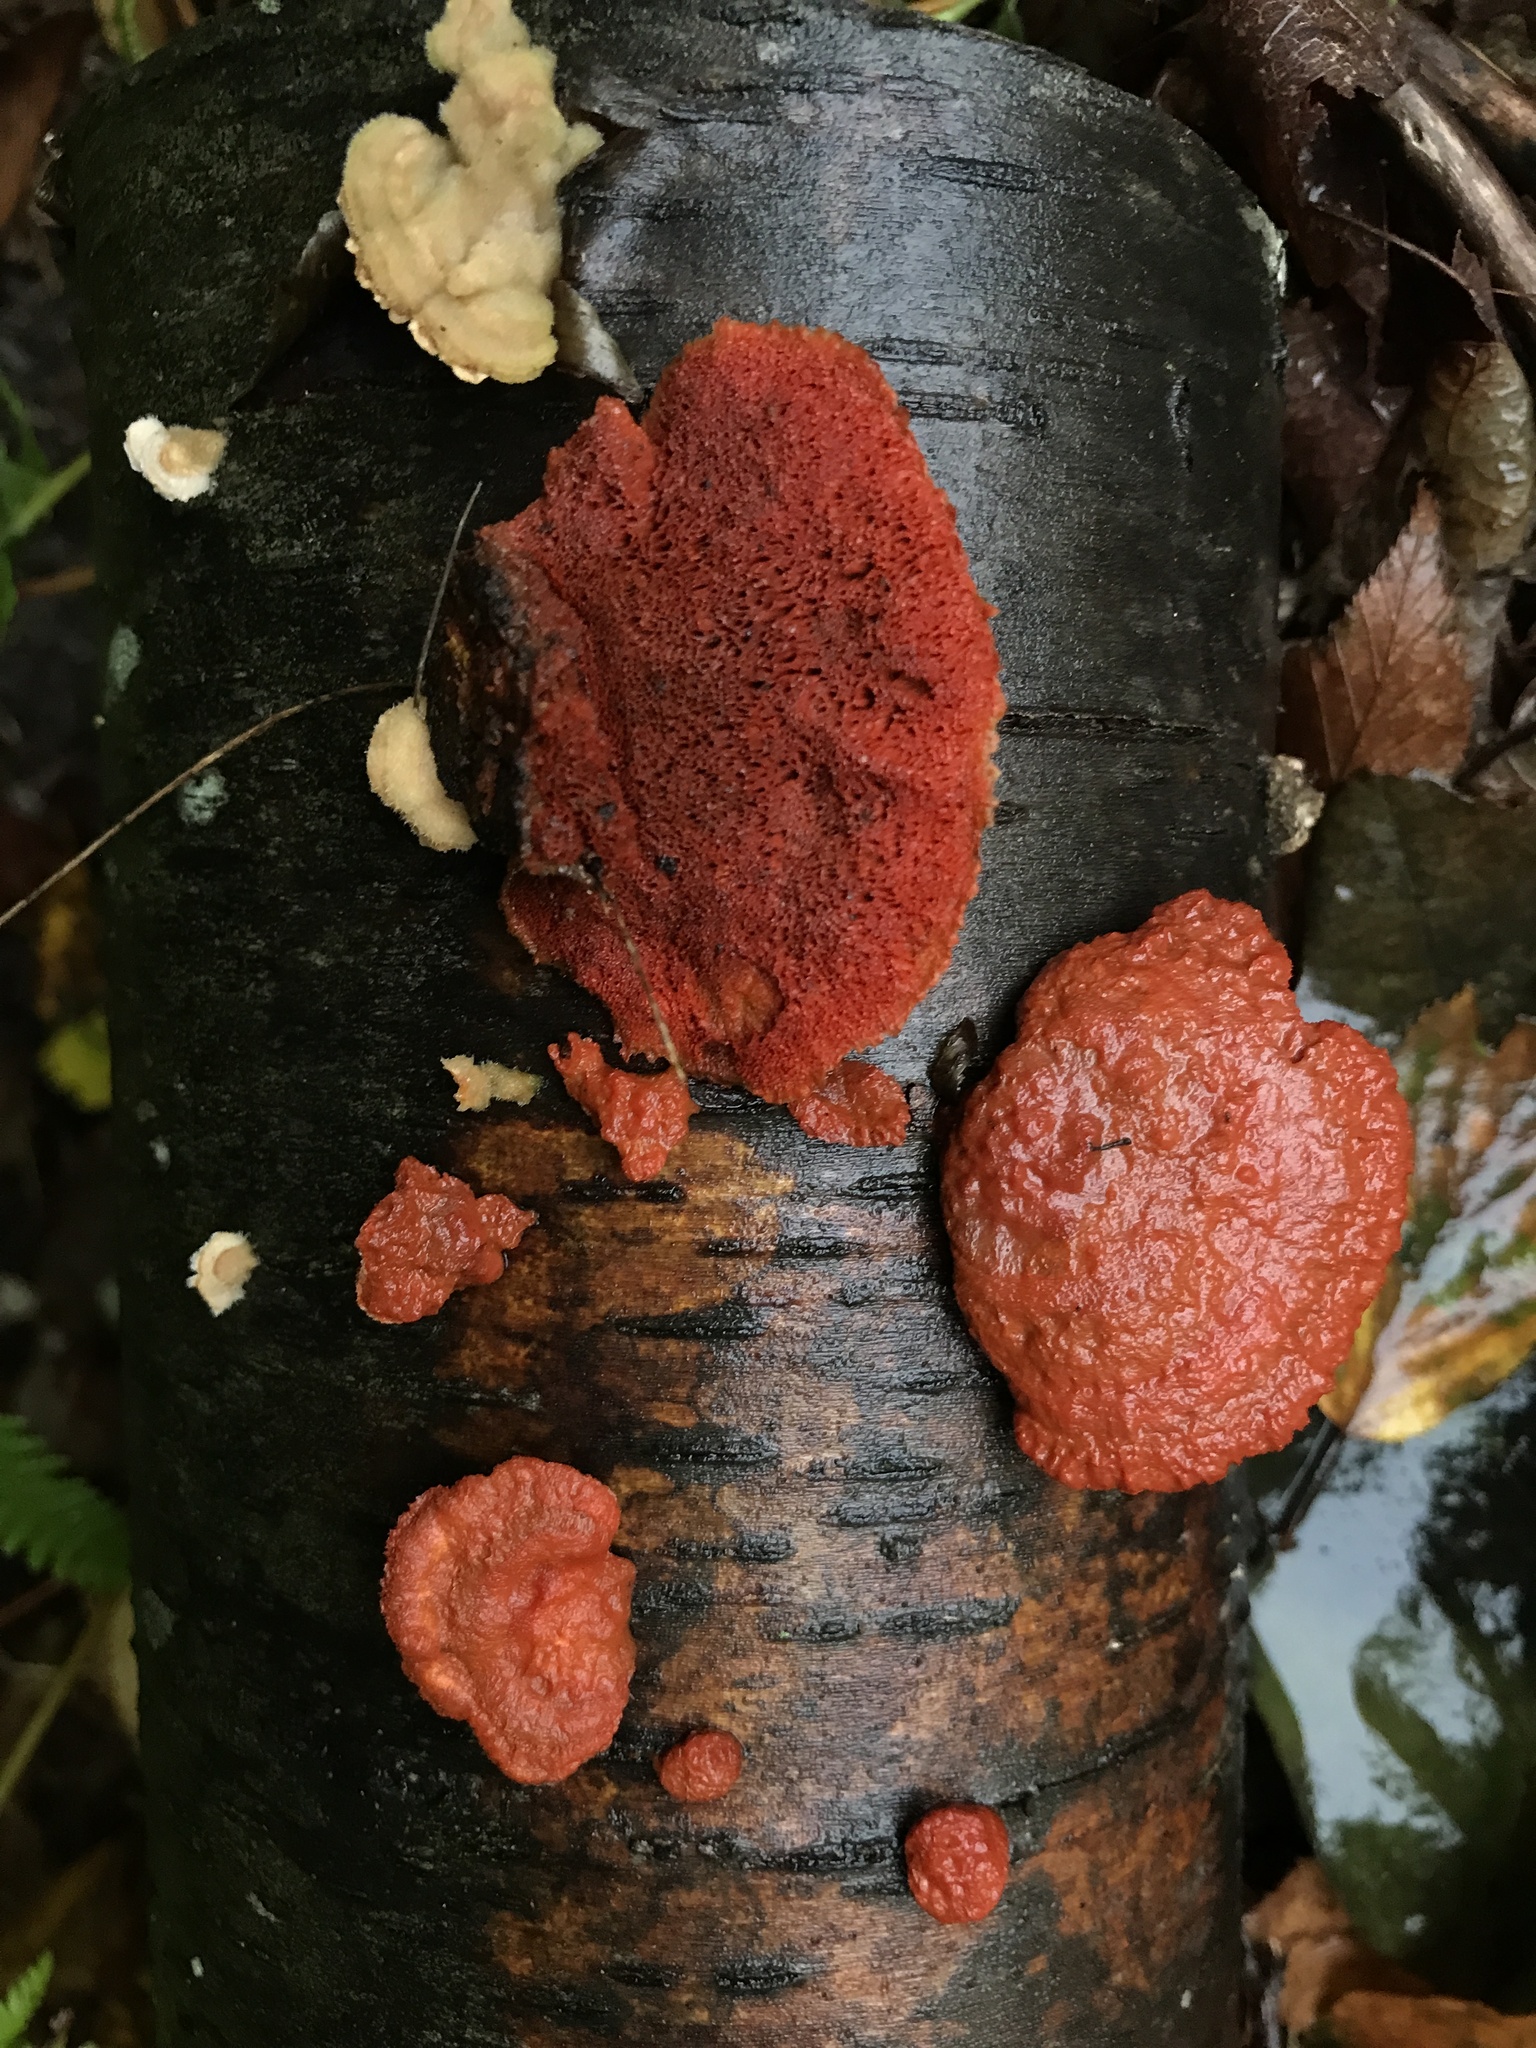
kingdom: Fungi
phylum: Basidiomycota
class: Agaricomycetes
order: Polyporales
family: Polyporaceae
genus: Trametes
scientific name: Trametes cinnabarina
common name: Northern cinnabar polypore
